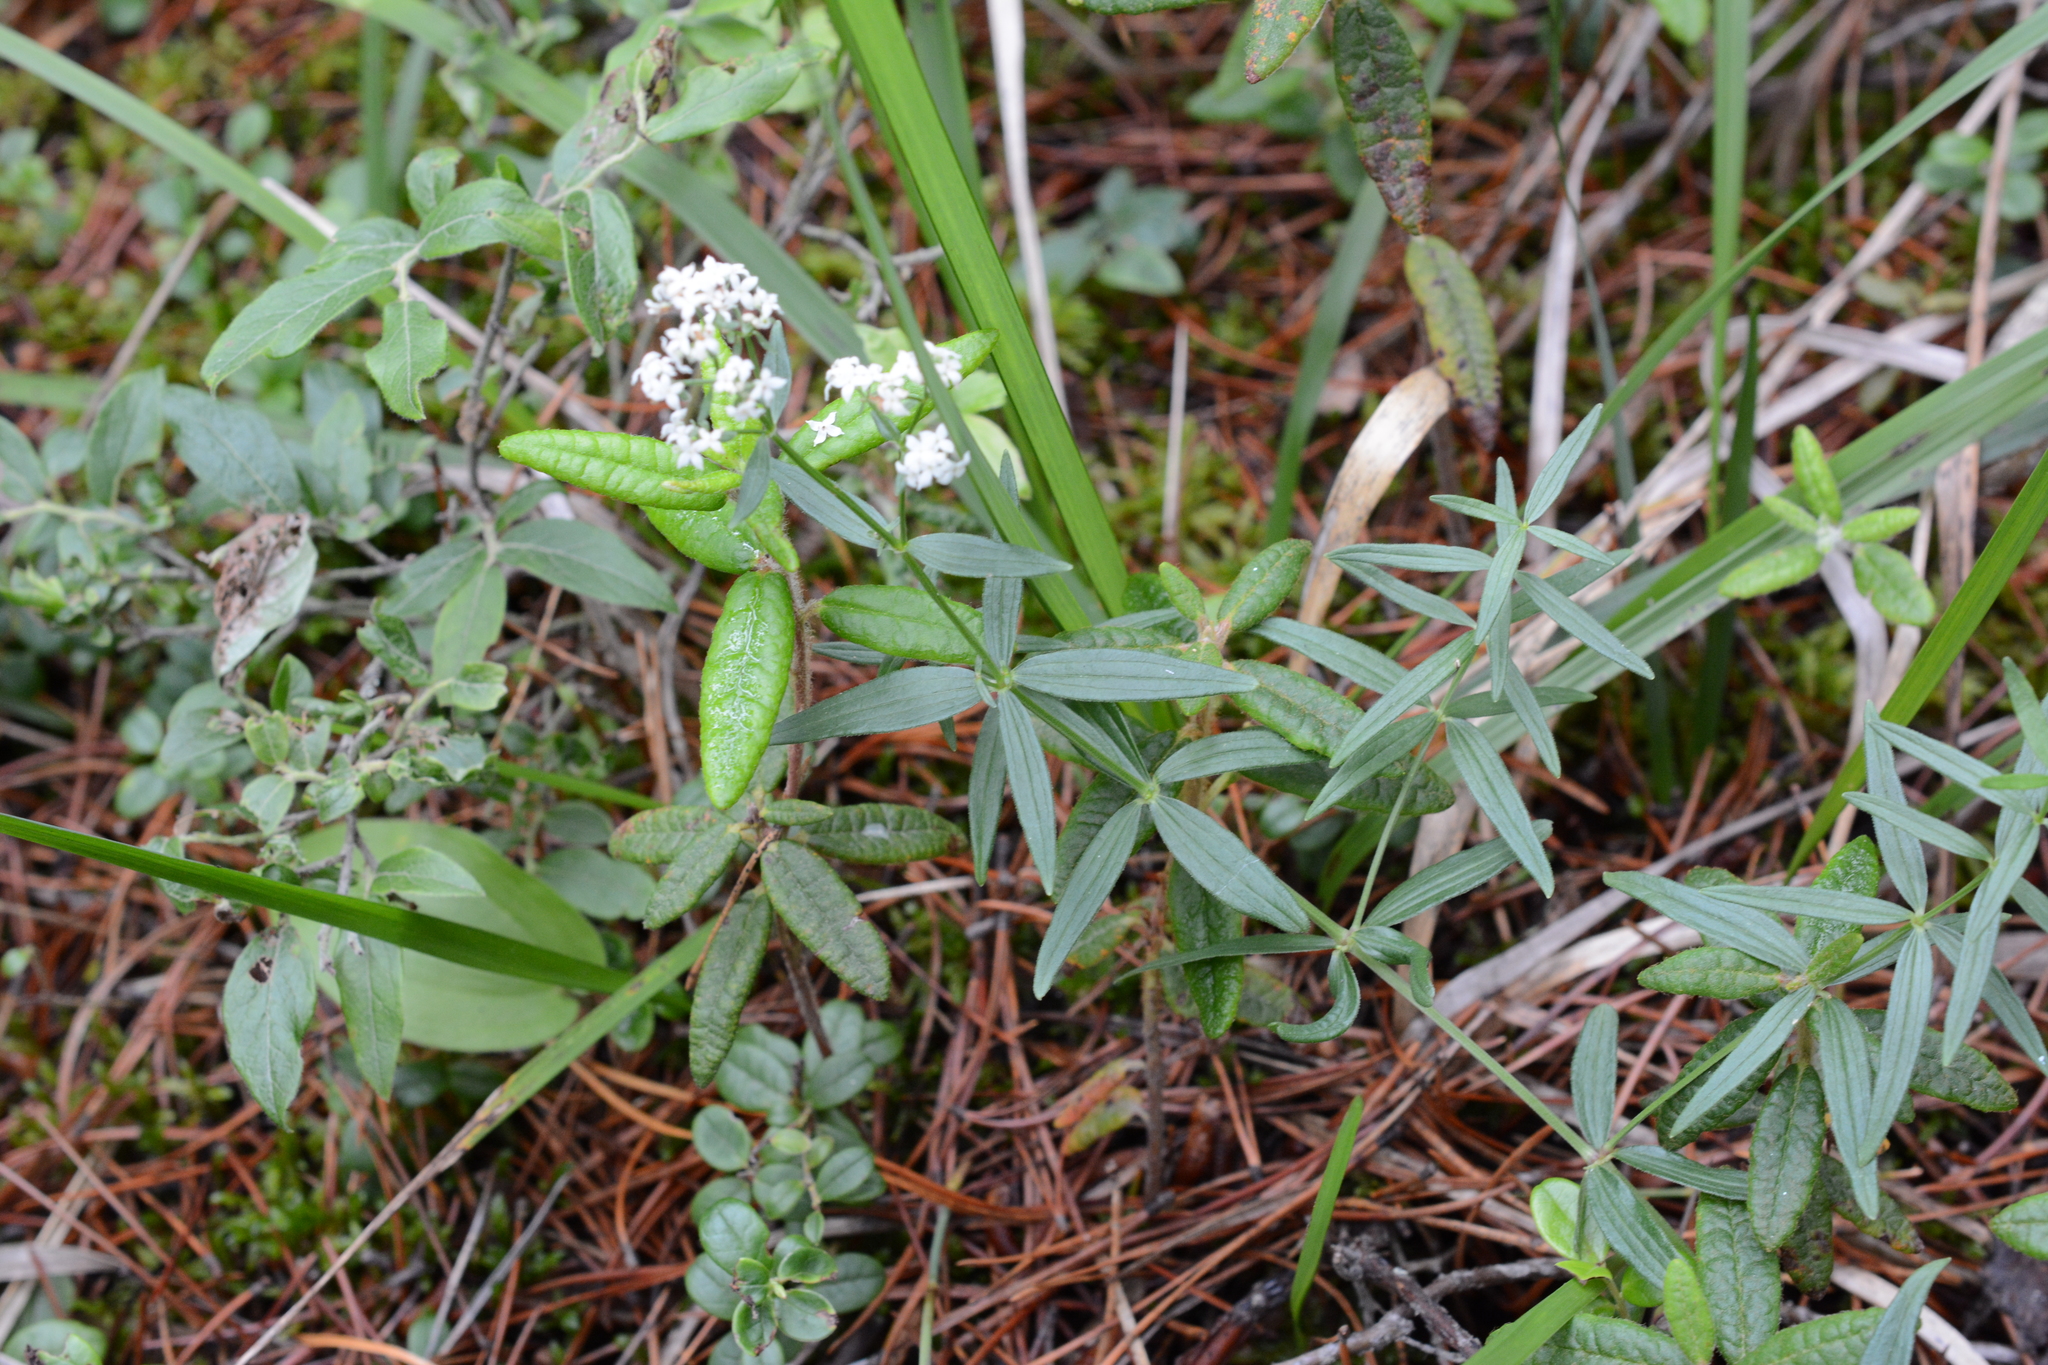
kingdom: Plantae
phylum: Tracheophyta
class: Magnoliopsida
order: Gentianales
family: Rubiaceae
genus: Galium
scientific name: Galium boreale
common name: Northern bedstraw
